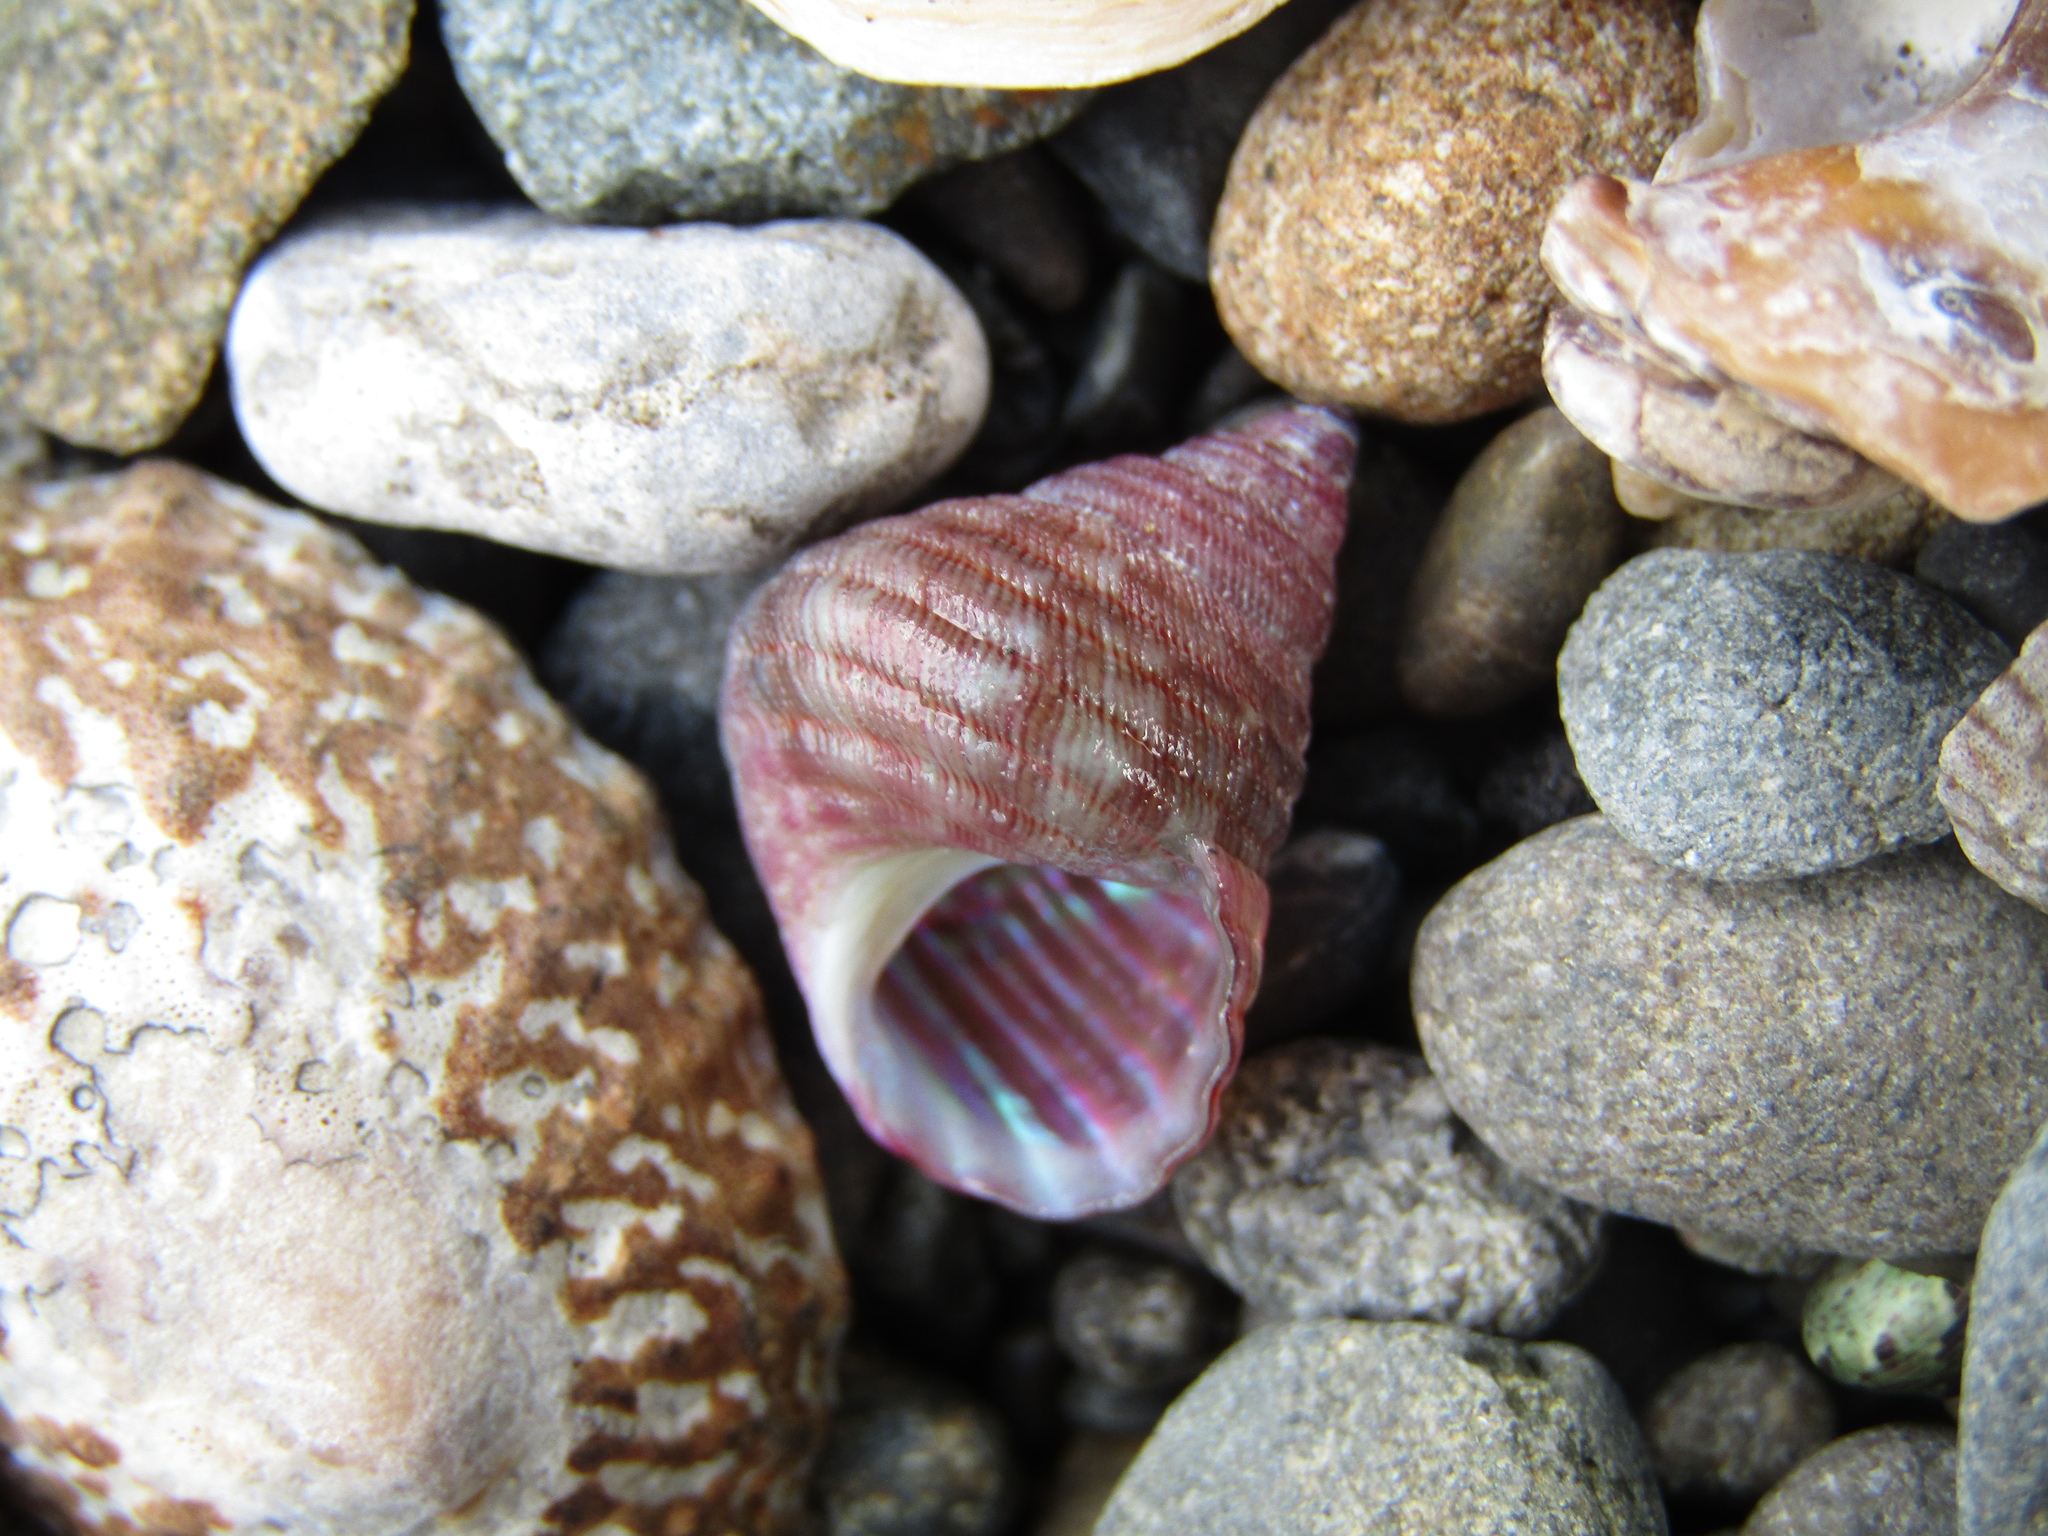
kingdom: Animalia
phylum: Mollusca
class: Gastropoda
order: Trochida
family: Trochidae
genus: Micrelenchus
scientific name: Micrelenchus purpureus
